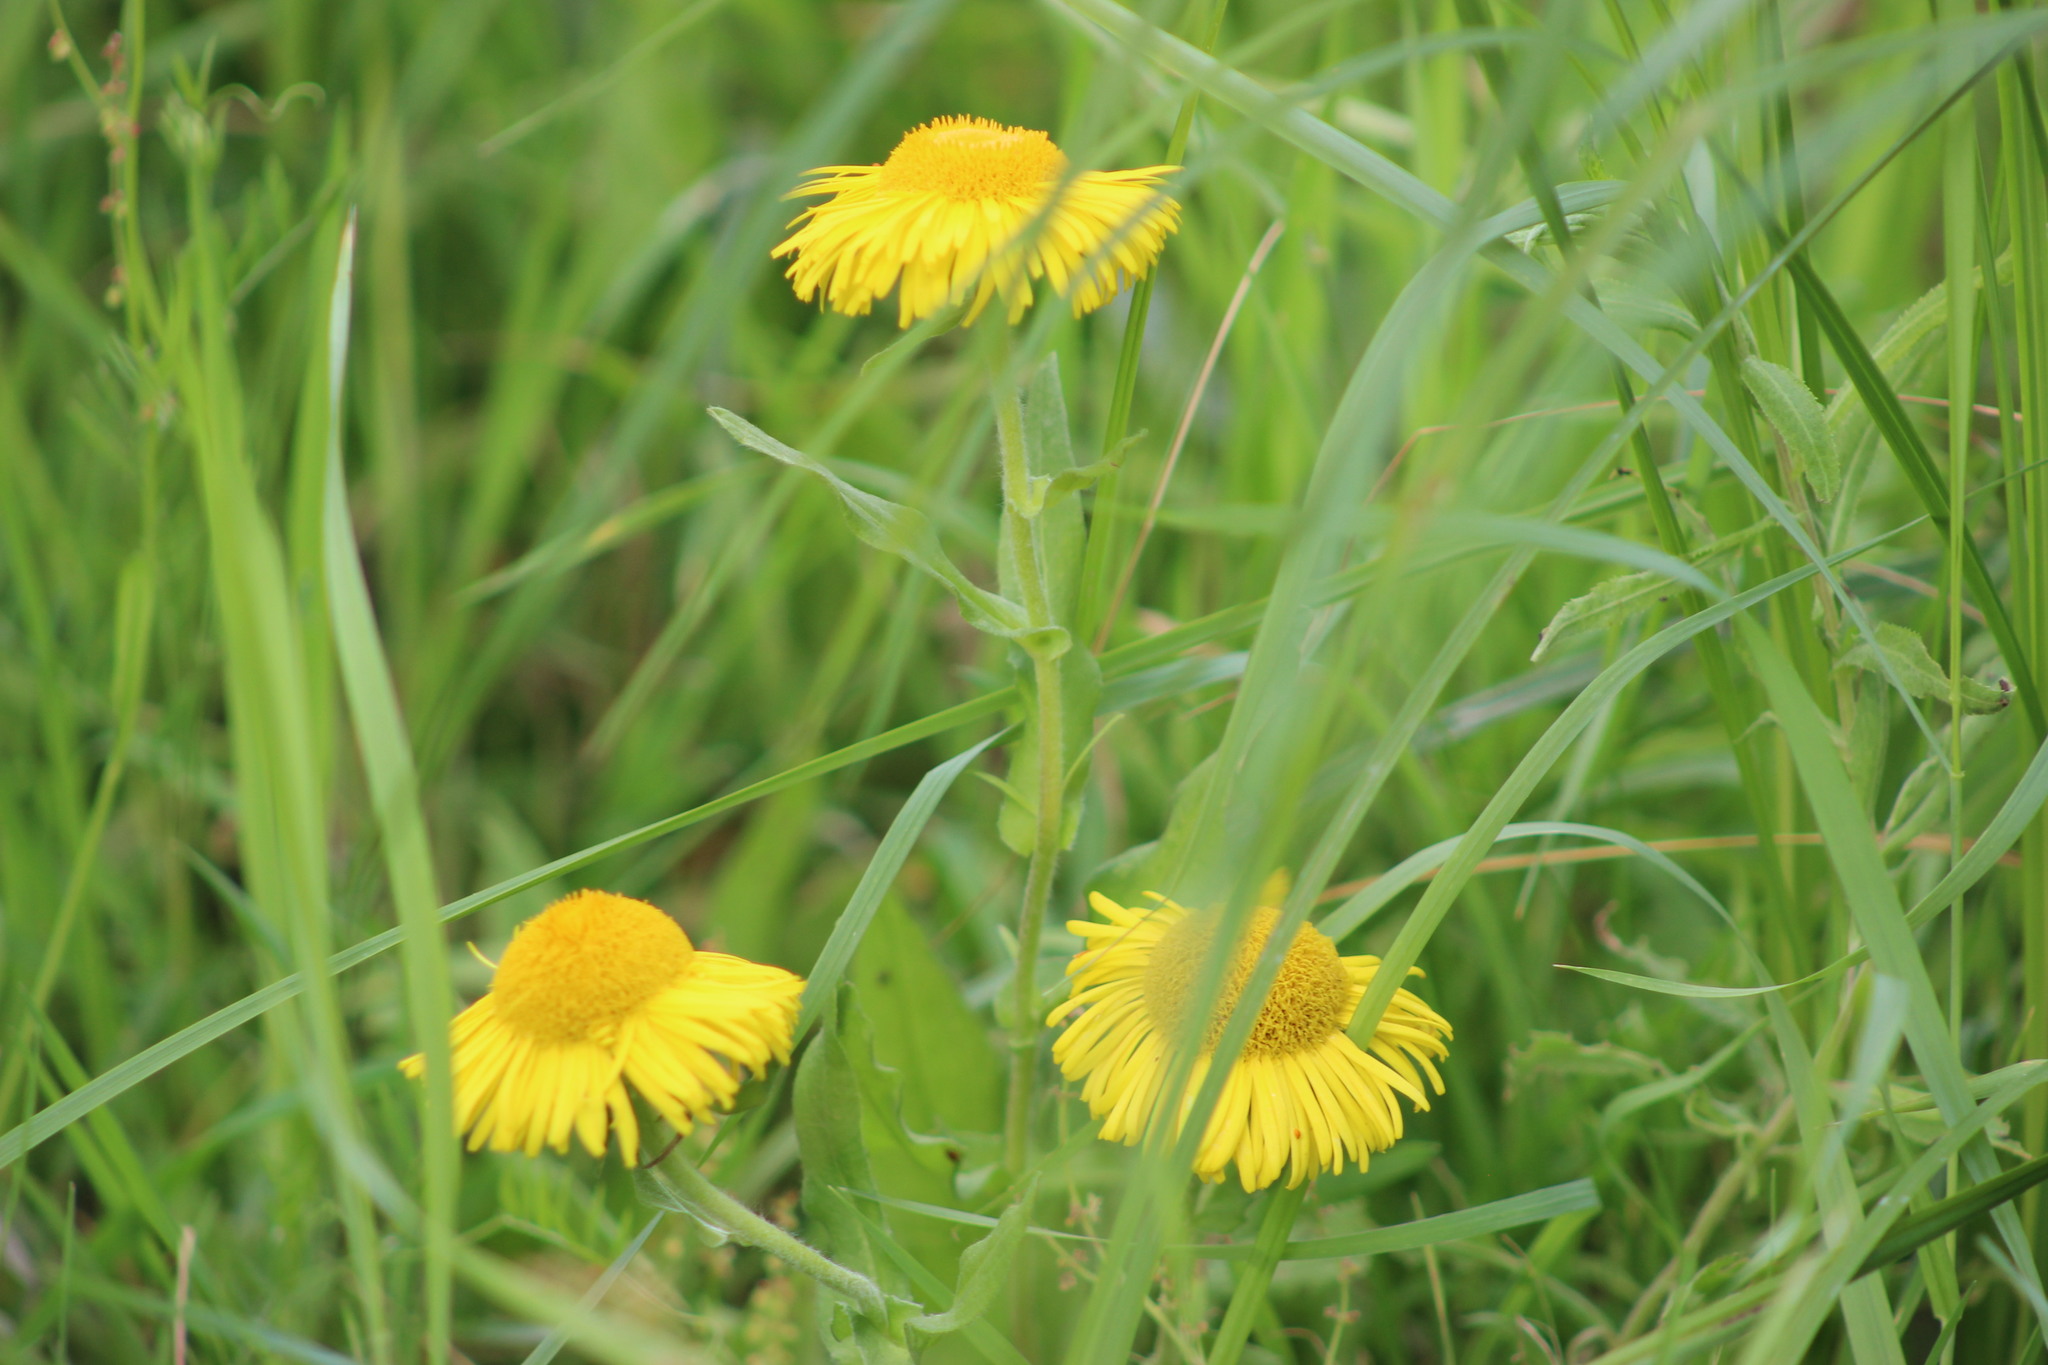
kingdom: Plantae
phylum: Tracheophyta
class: Magnoliopsida
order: Asterales
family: Asteraceae
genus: Pentanema
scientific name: Pentanema britannicum
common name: British elecampane
